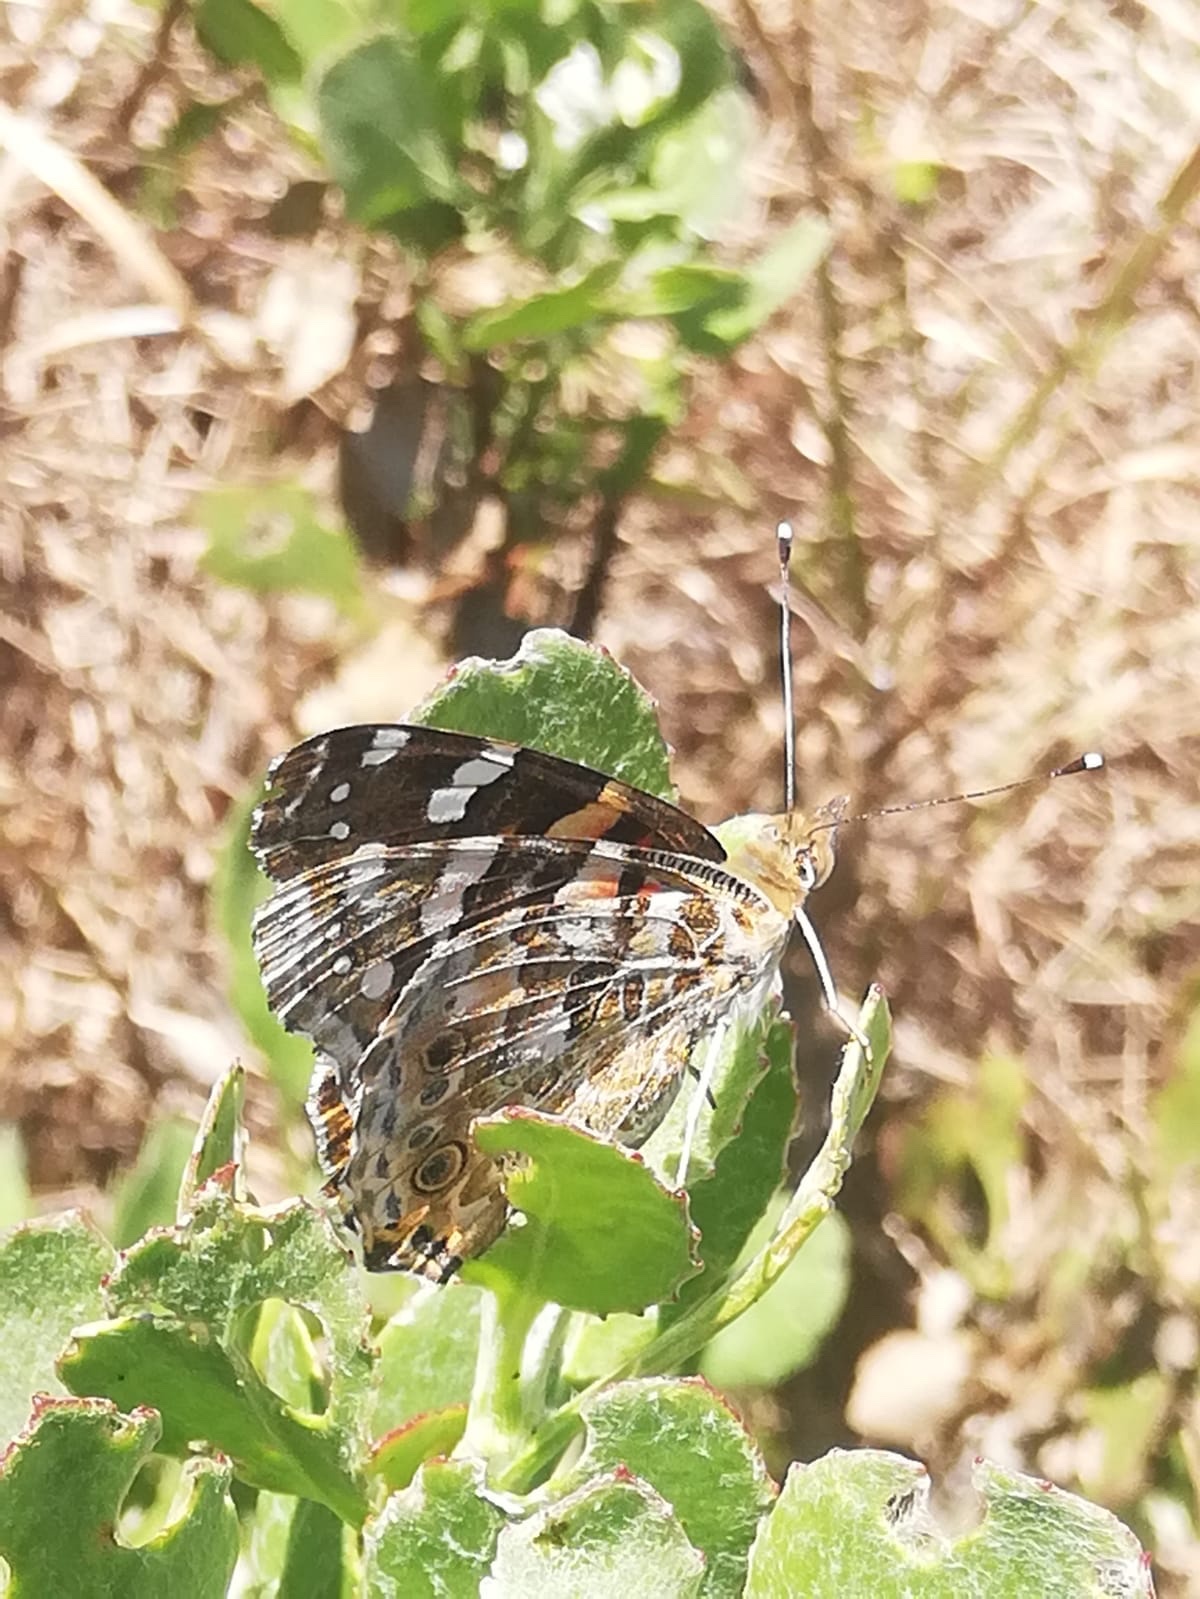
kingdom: Animalia
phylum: Arthropoda
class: Insecta
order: Lepidoptera
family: Nymphalidae
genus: Vanessa
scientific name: Vanessa cardui
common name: Painted lady
